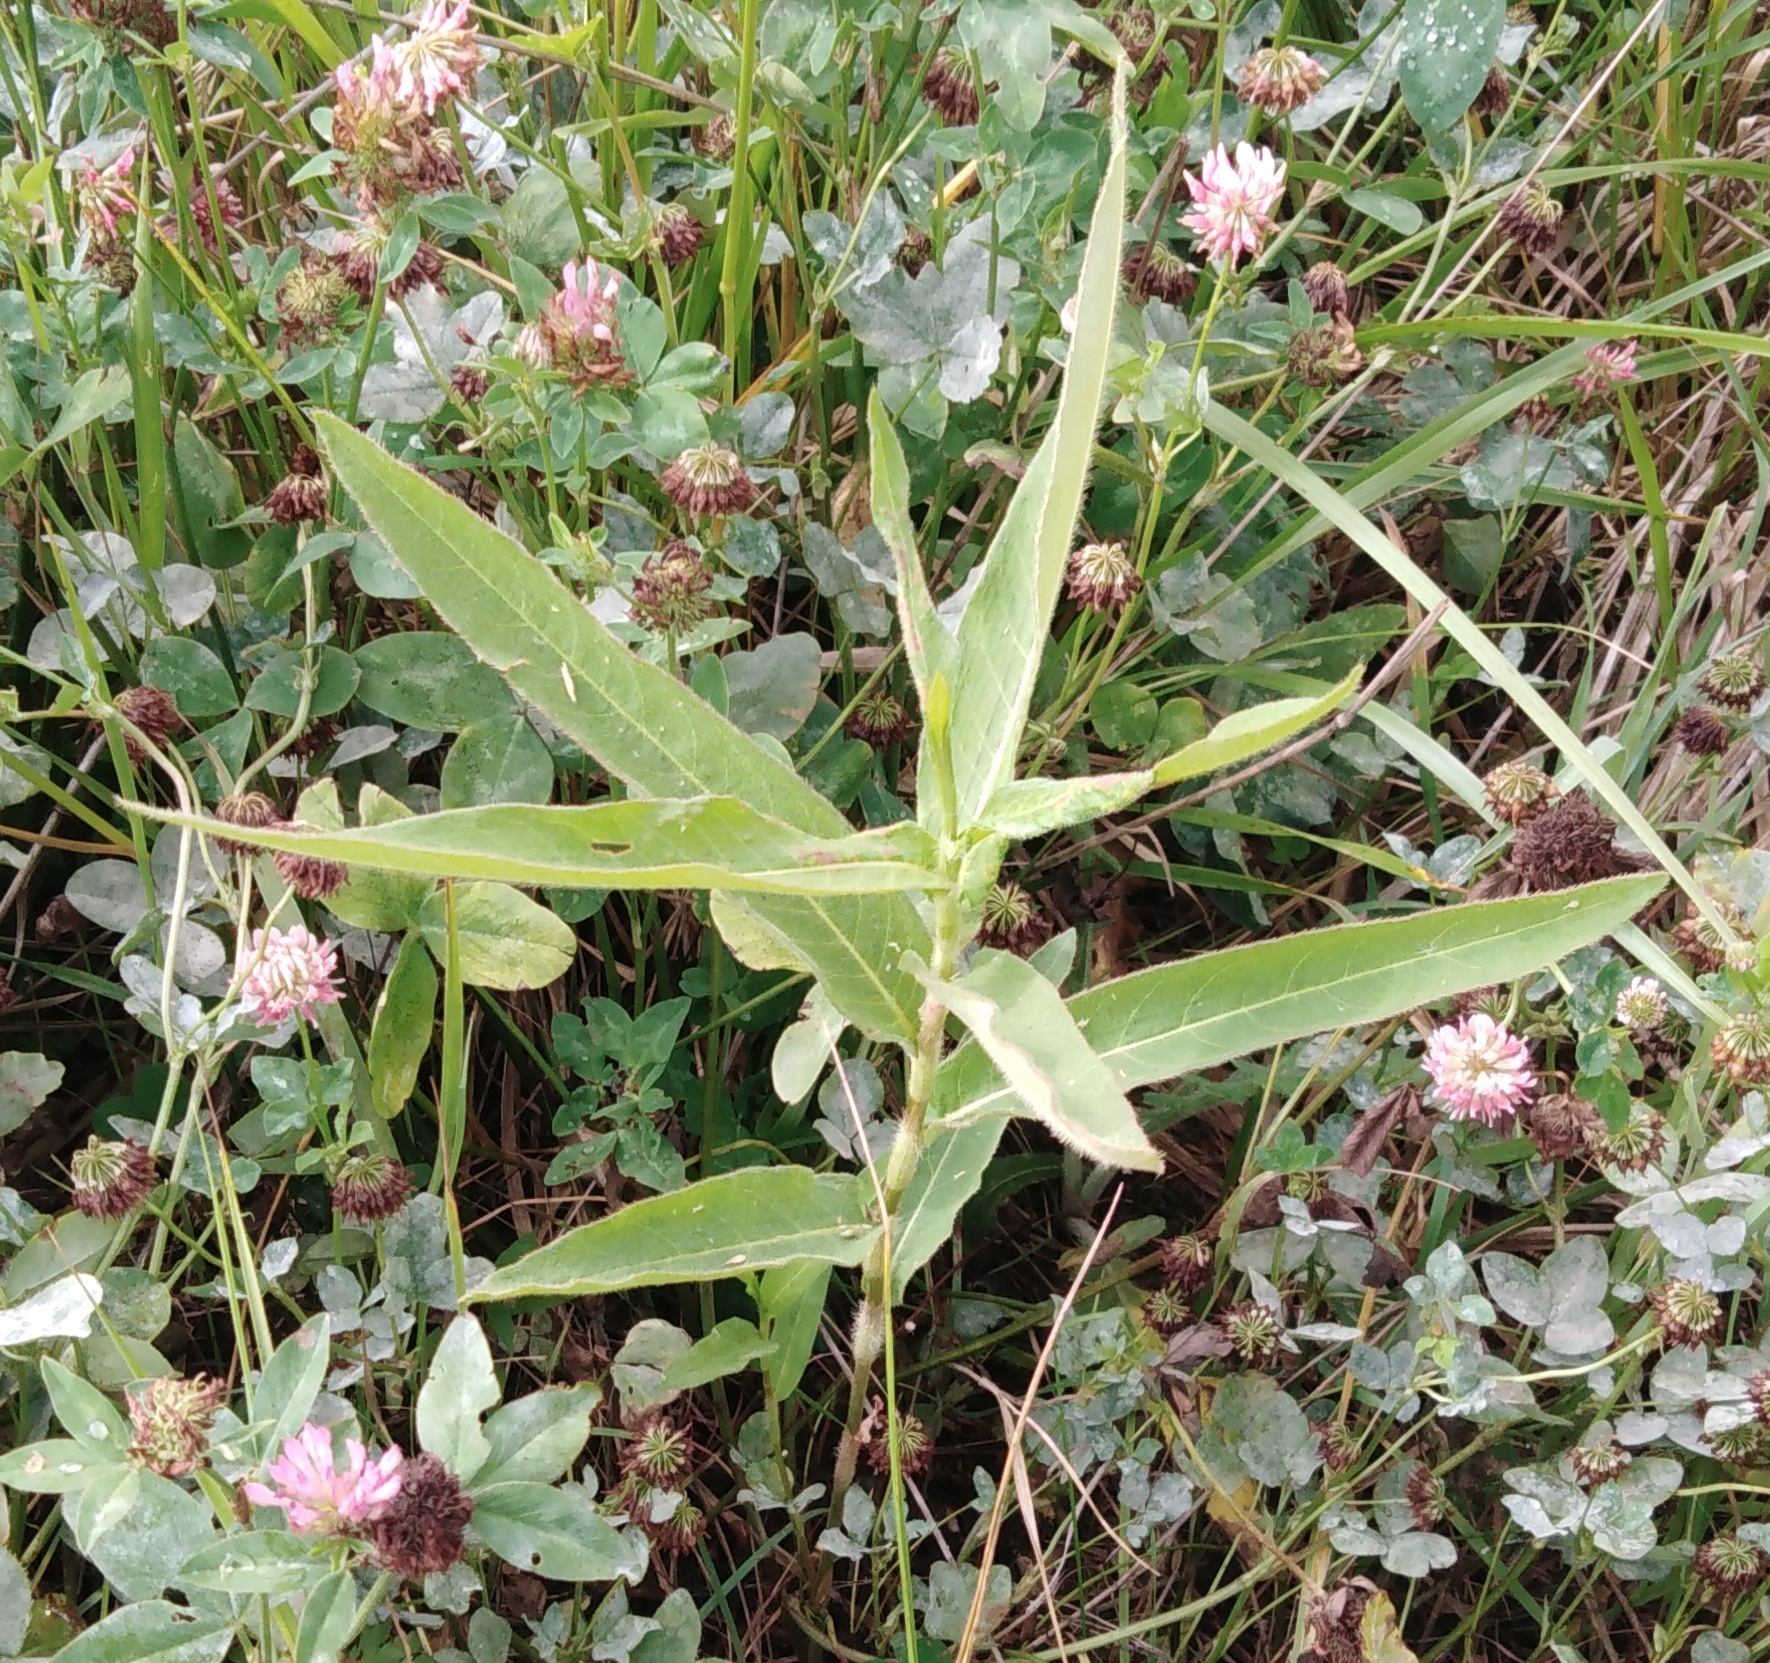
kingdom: Plantae
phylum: Tracheophyta
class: Magnoliopsida
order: Caryophyllales
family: Polygonaceae
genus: Persicaria
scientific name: Persicaria amphibia
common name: Amphibious bistort
